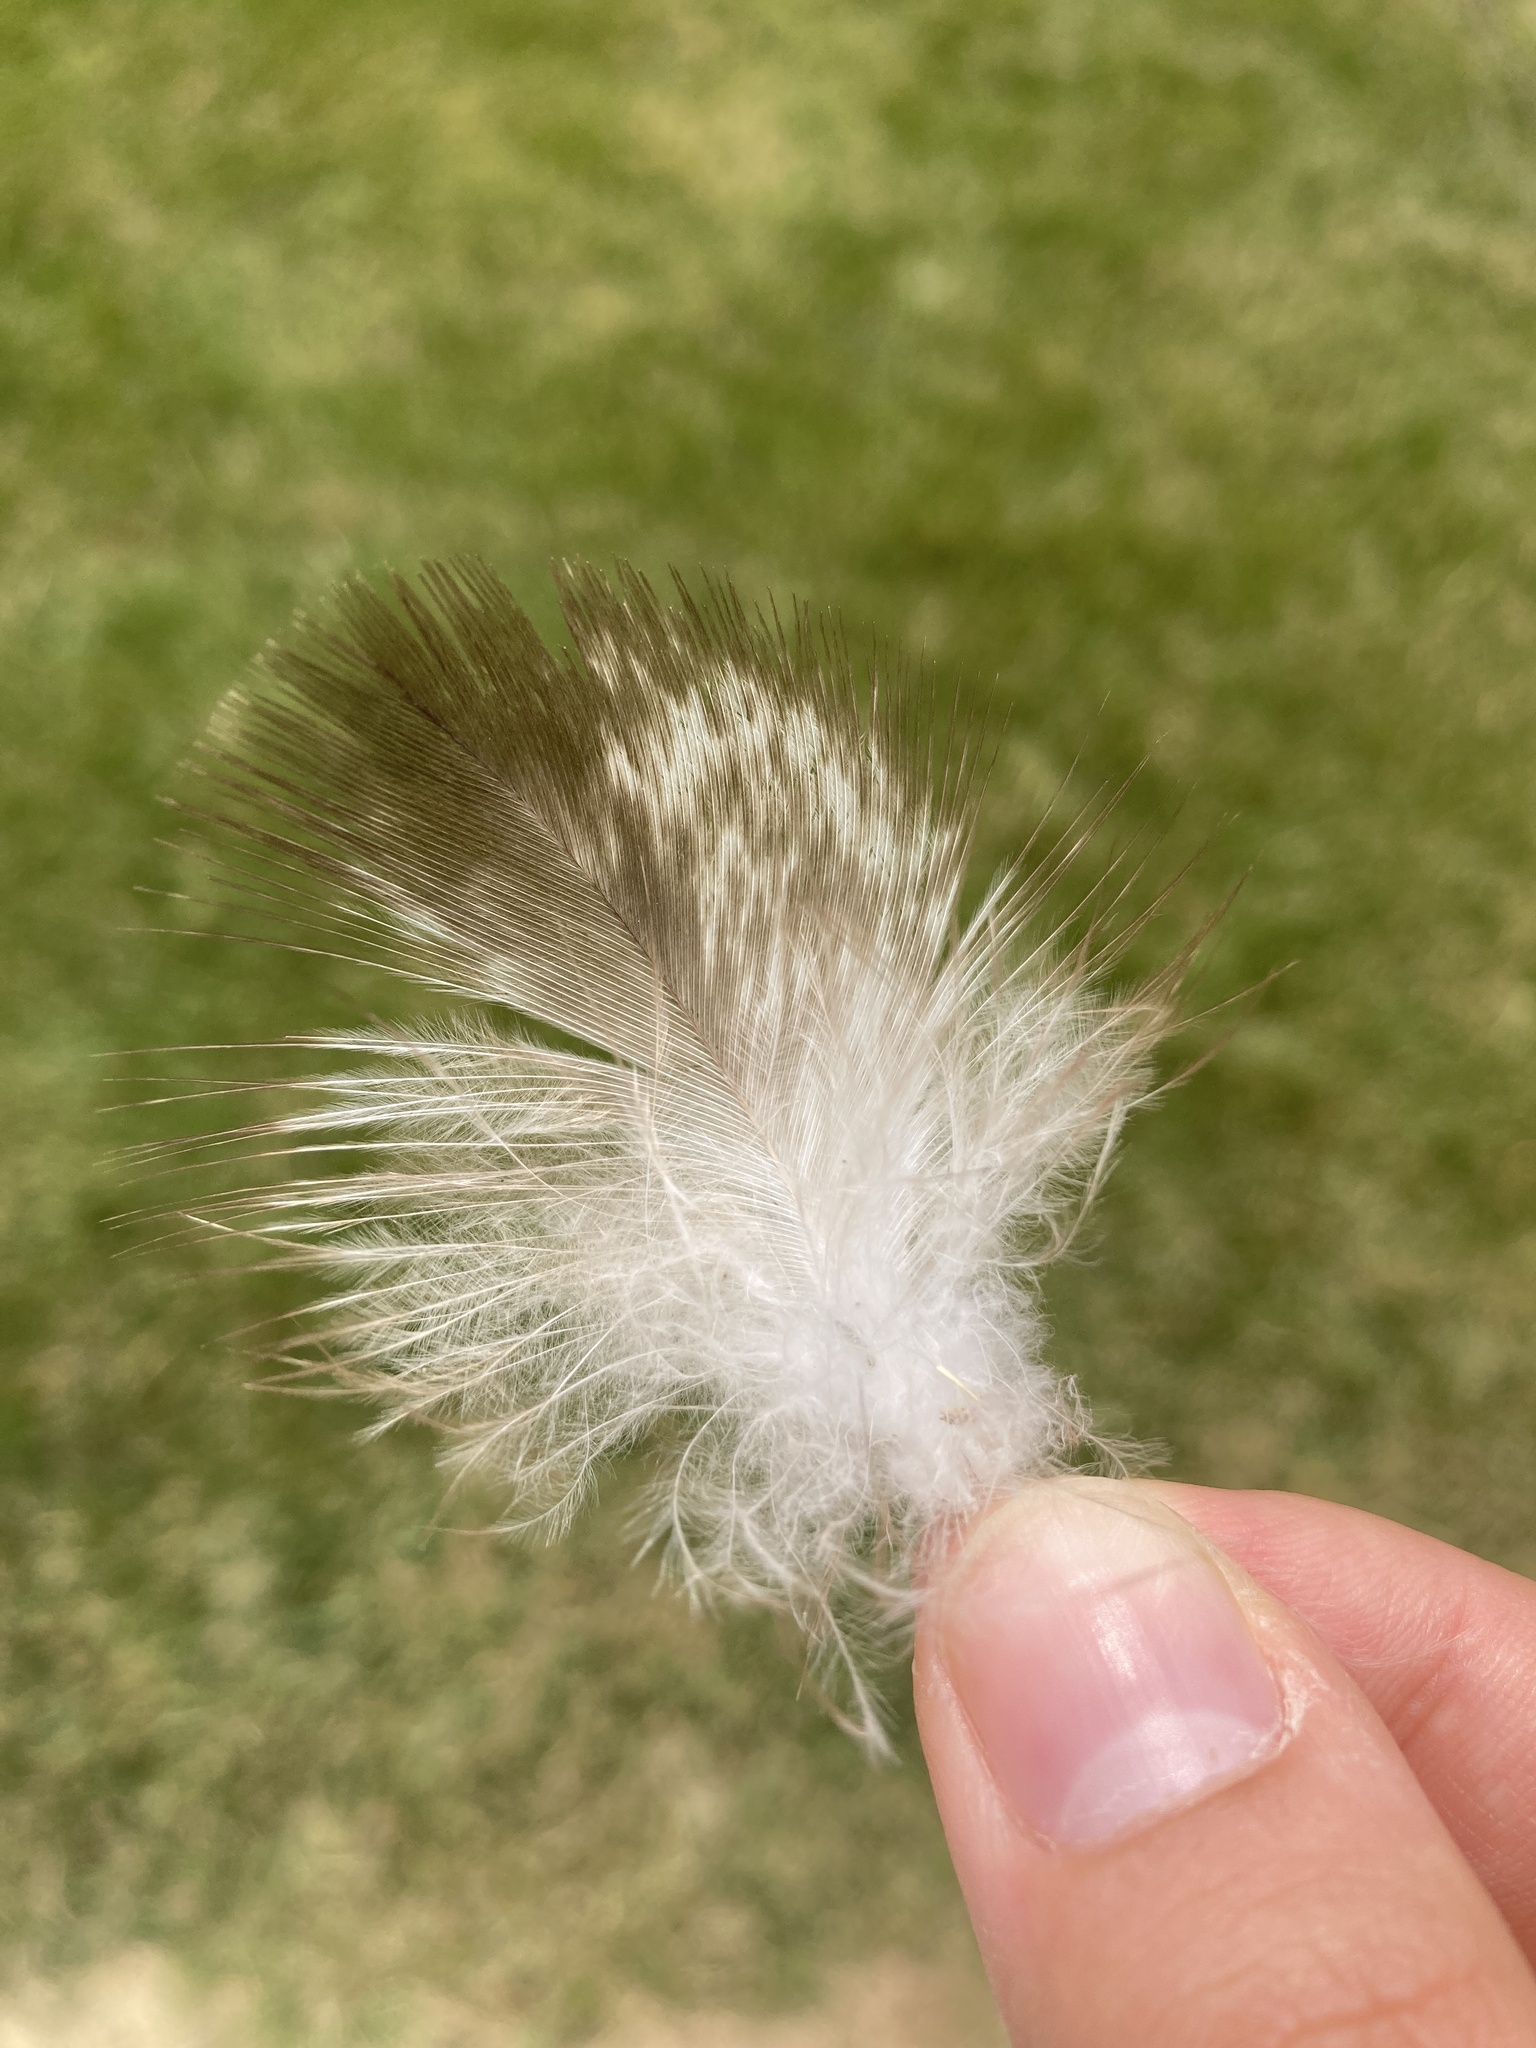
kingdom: Animalia
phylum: Chordata
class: Aves
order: Accipitriformes
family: Accipitridae
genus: Haliaeetus
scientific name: Haliaeetus leucocephalus
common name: Bald eagle
